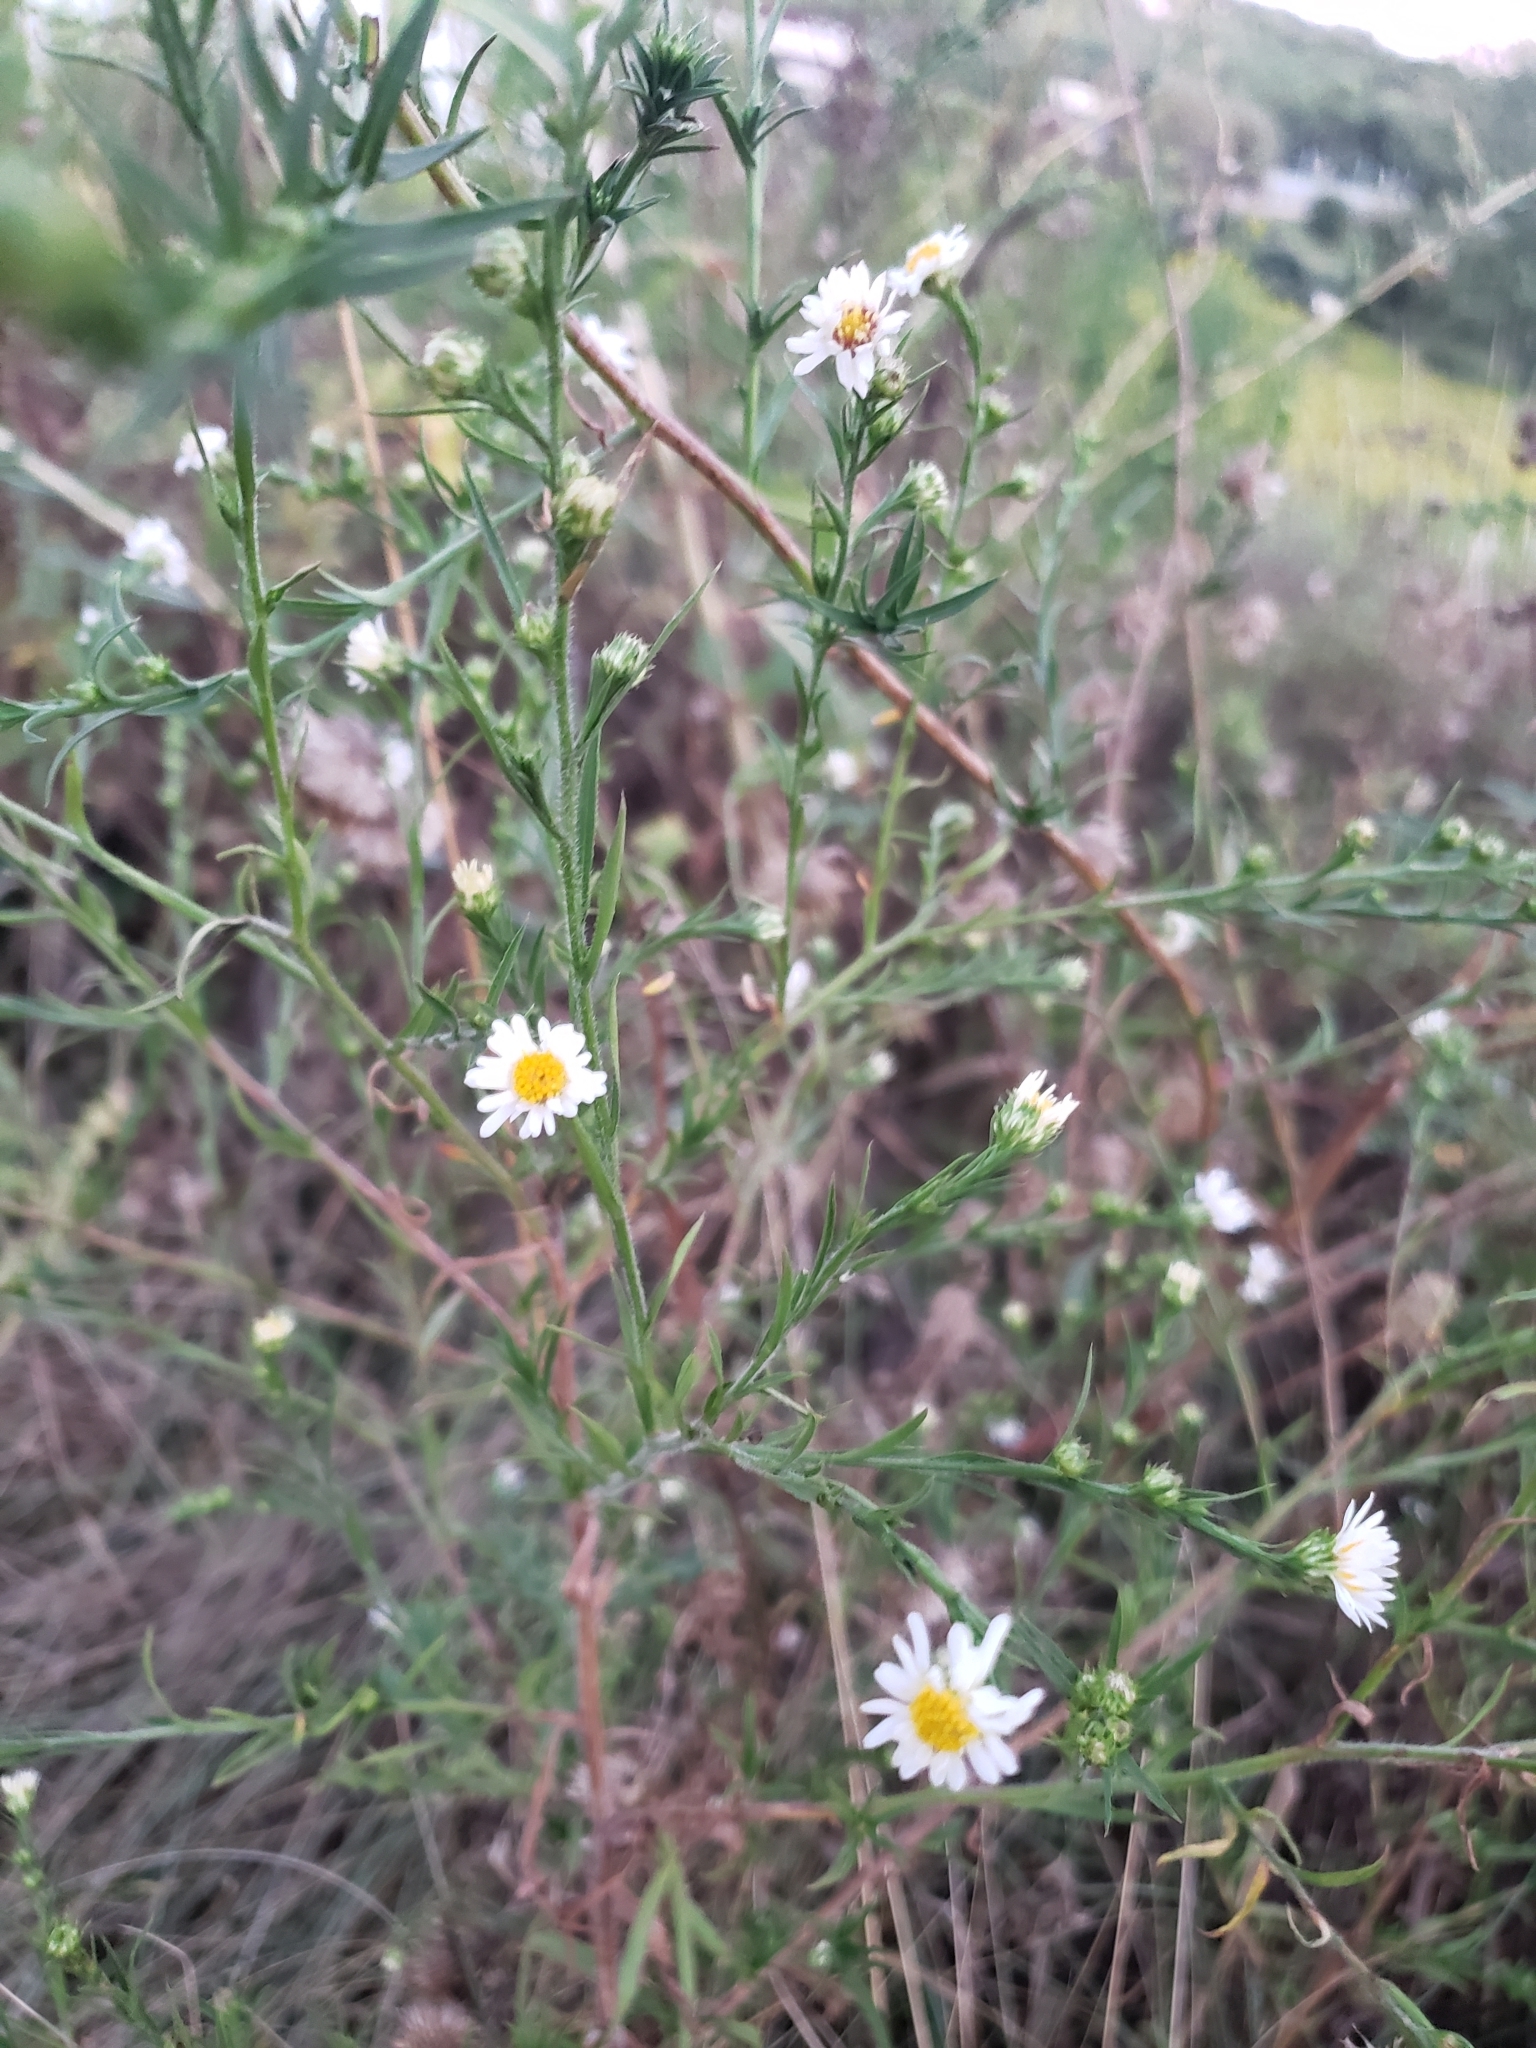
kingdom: Plantae
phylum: Tracheophyta
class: Magnoliopsida
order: Asterales
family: Asteraceae
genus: Symphyotrichum
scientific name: Symphyotrichum pilosum
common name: Awl aster
